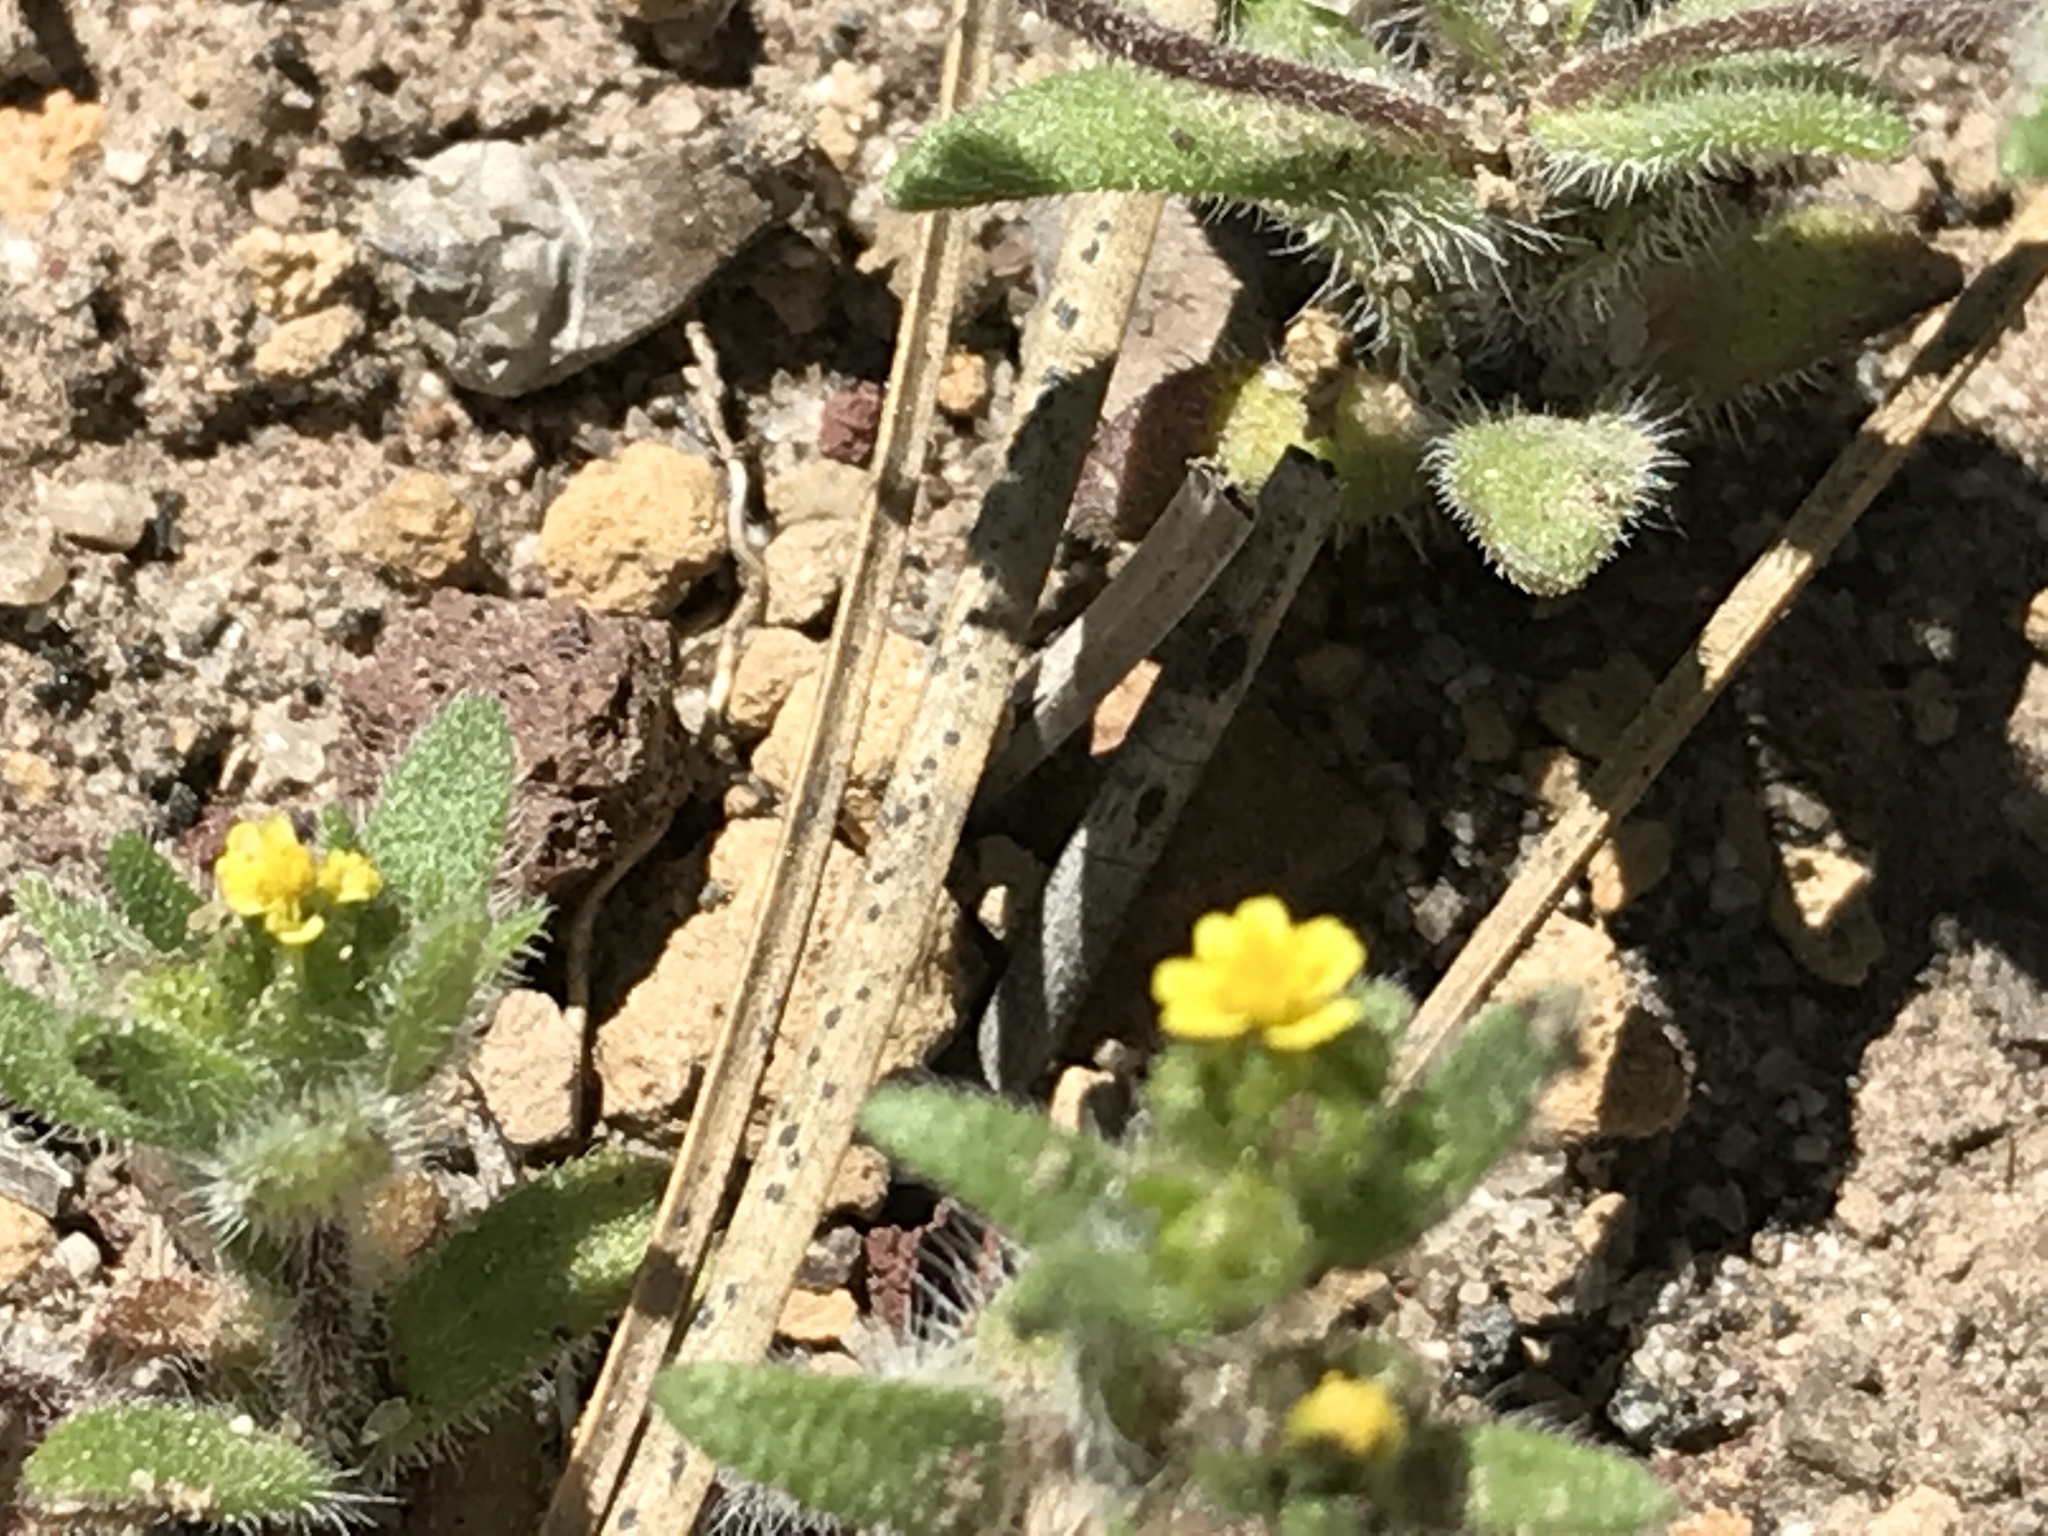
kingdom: Plantae
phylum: Tracheophyta
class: Magnoliopsida
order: Asterales
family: Asteraceae
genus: Hemizonella
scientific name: Hemizonella minima
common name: Opposite-leaved tarweed
